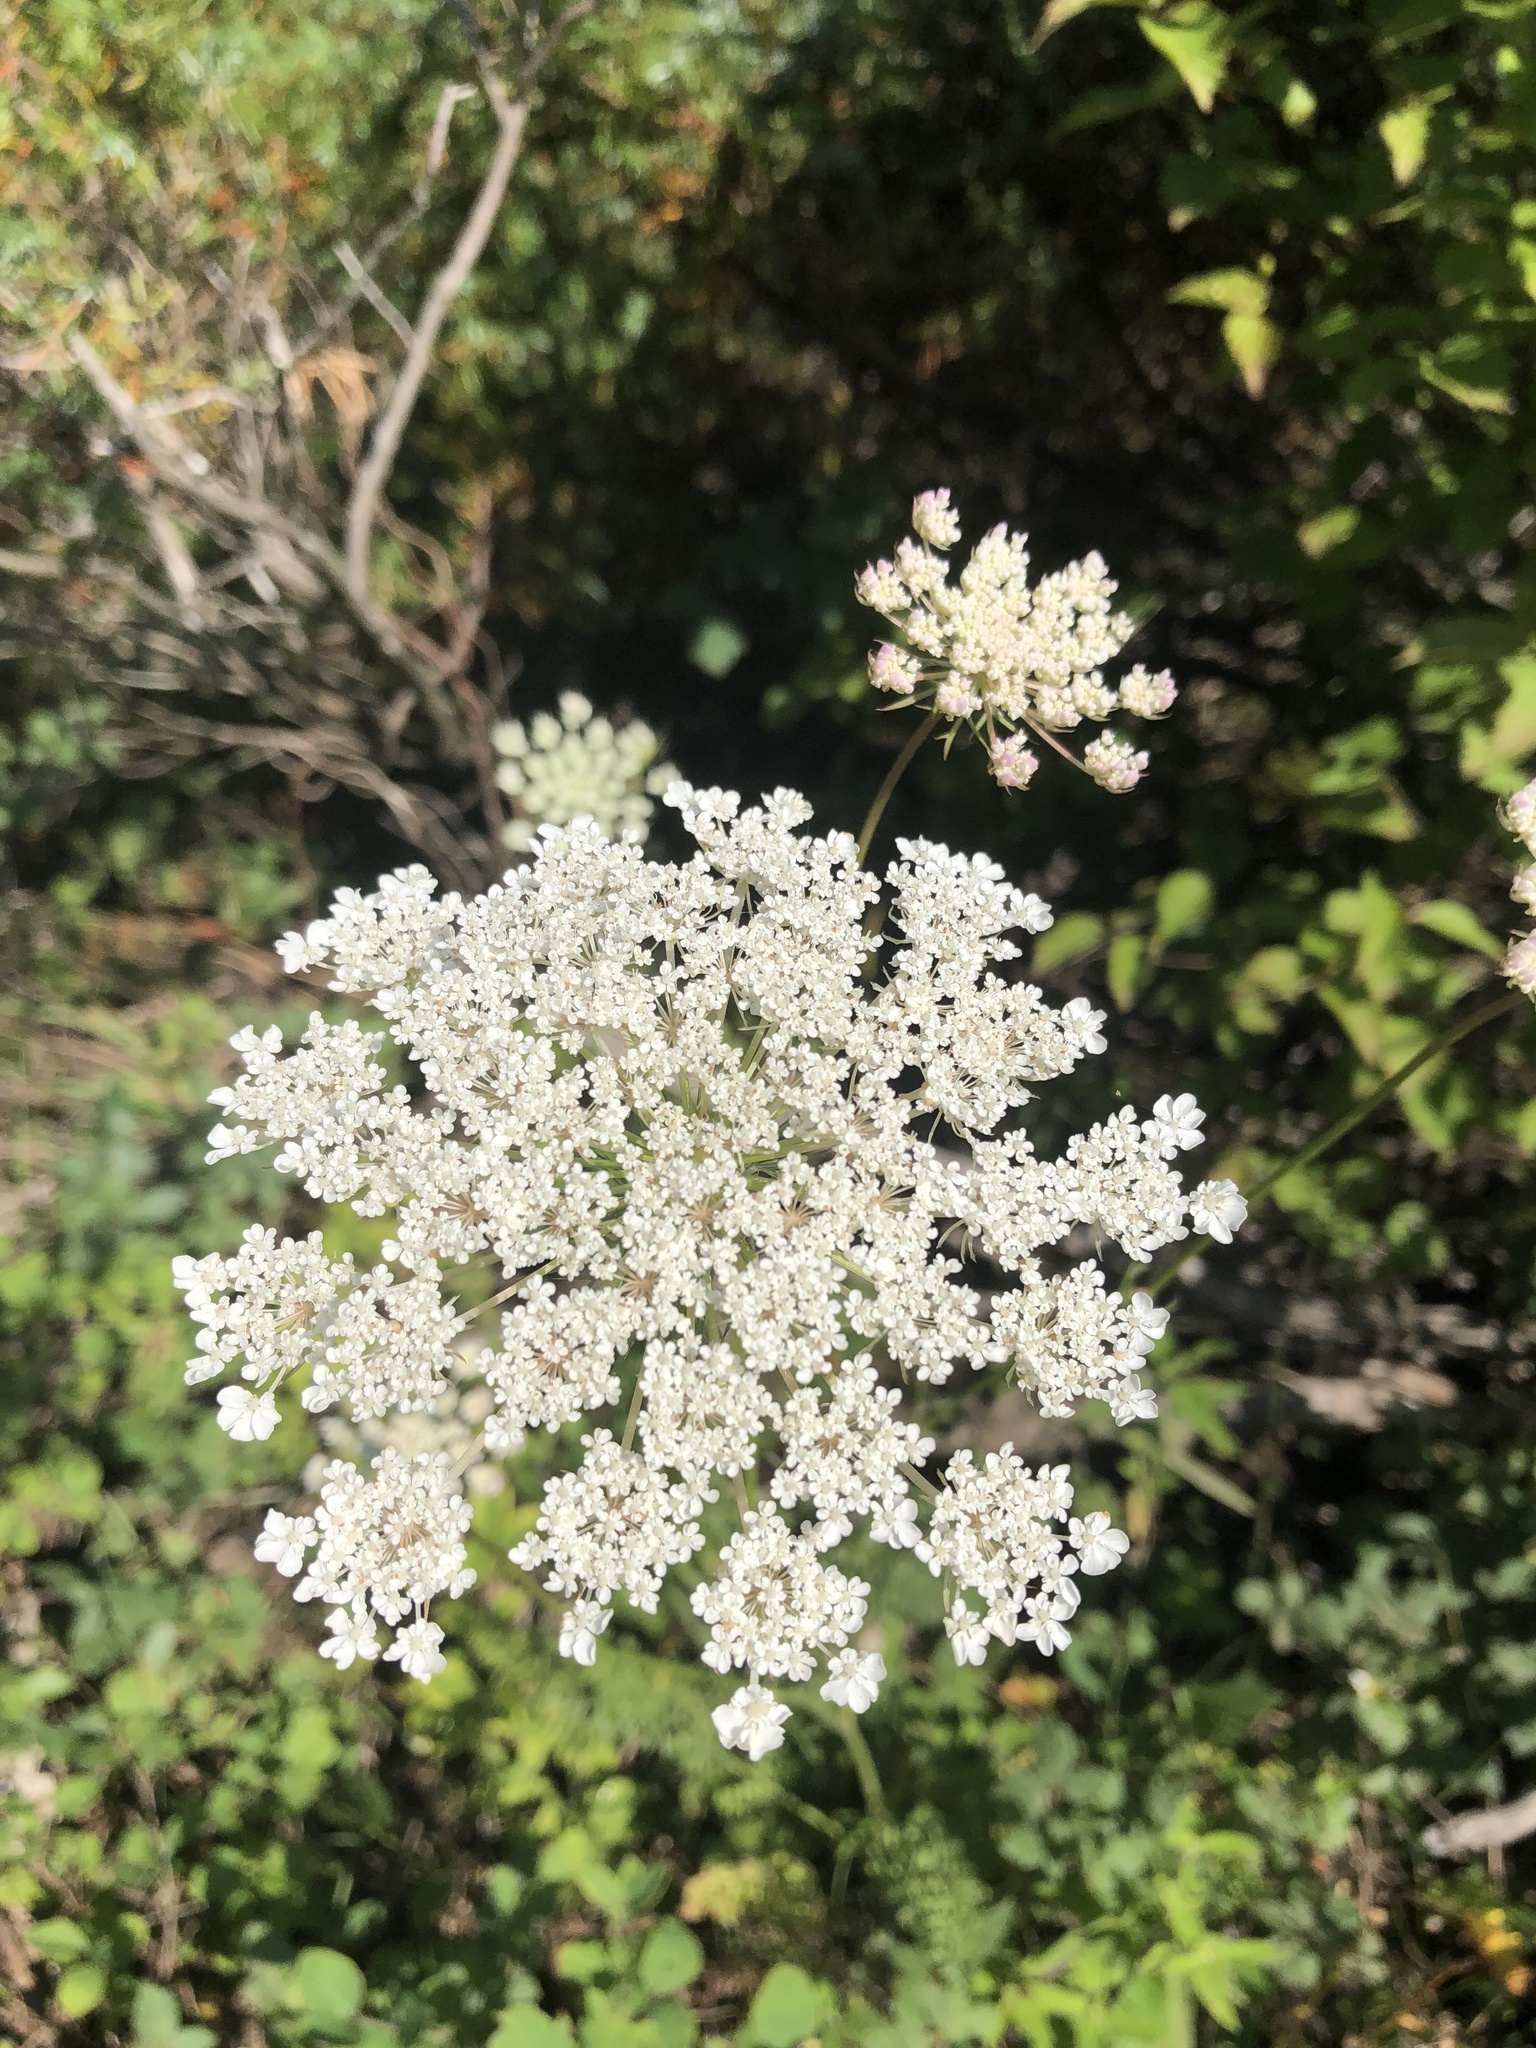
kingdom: Plantae
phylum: Tracheophyta
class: Magnoliopsida
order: Apiales
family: Apiaceae
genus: Daucus
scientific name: Daucus carota
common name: Wild carrot
